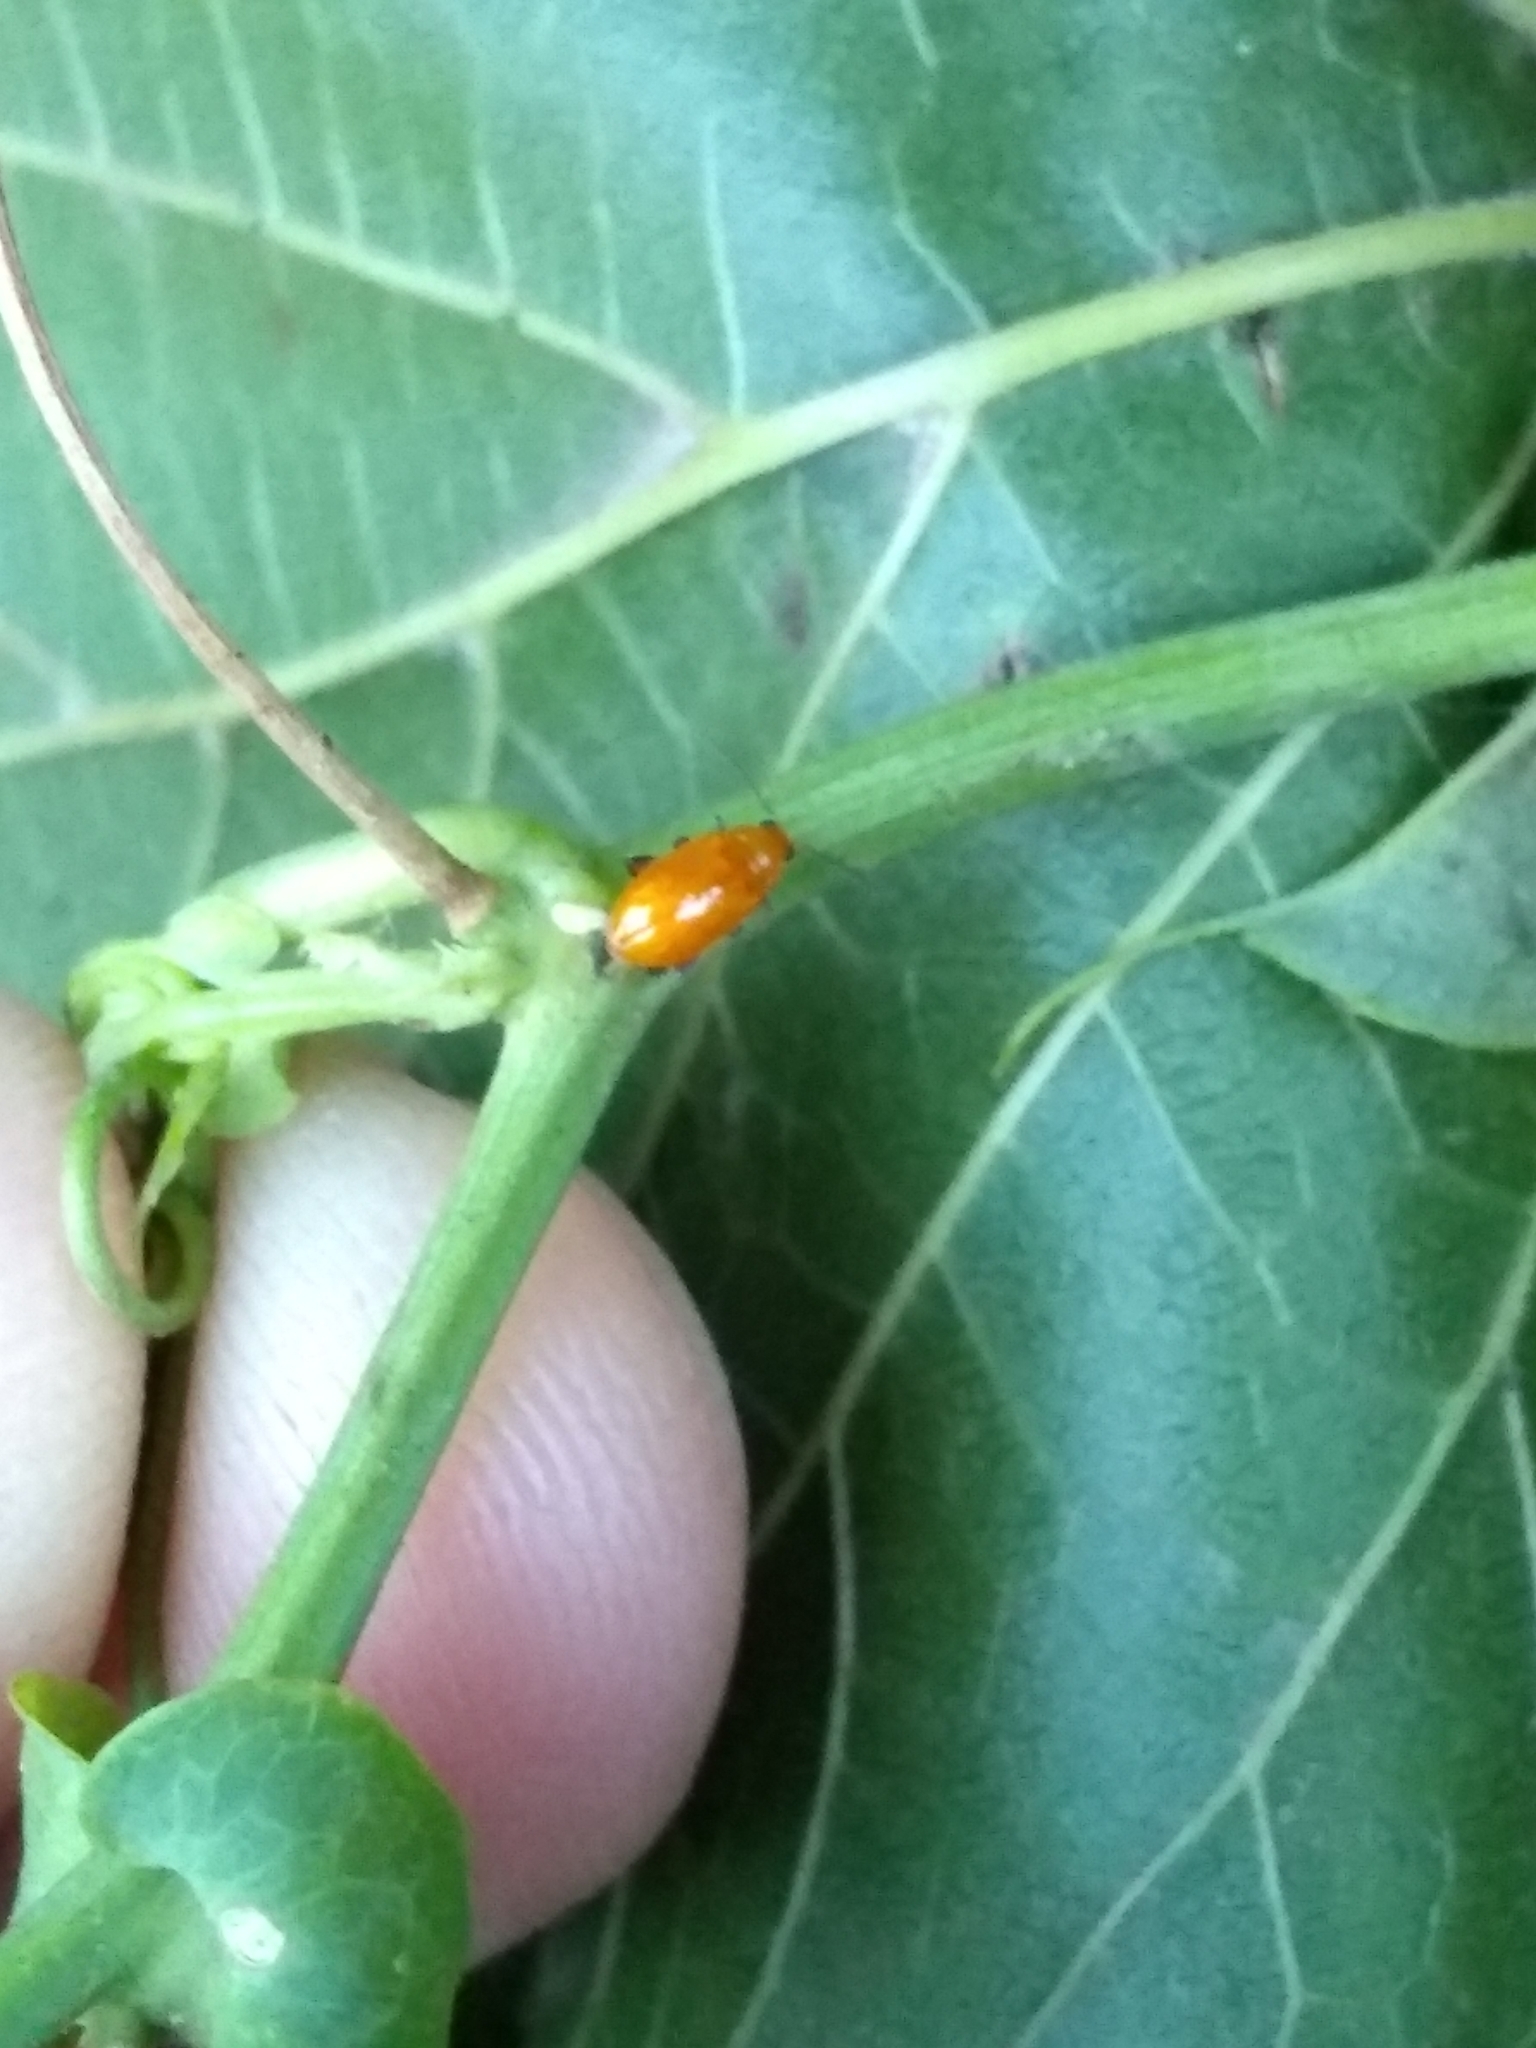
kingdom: Animalia
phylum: Arthropoda
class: Insecta
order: Coleoptera
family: Chrysomelidae
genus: Parchicola
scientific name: Parchicola
